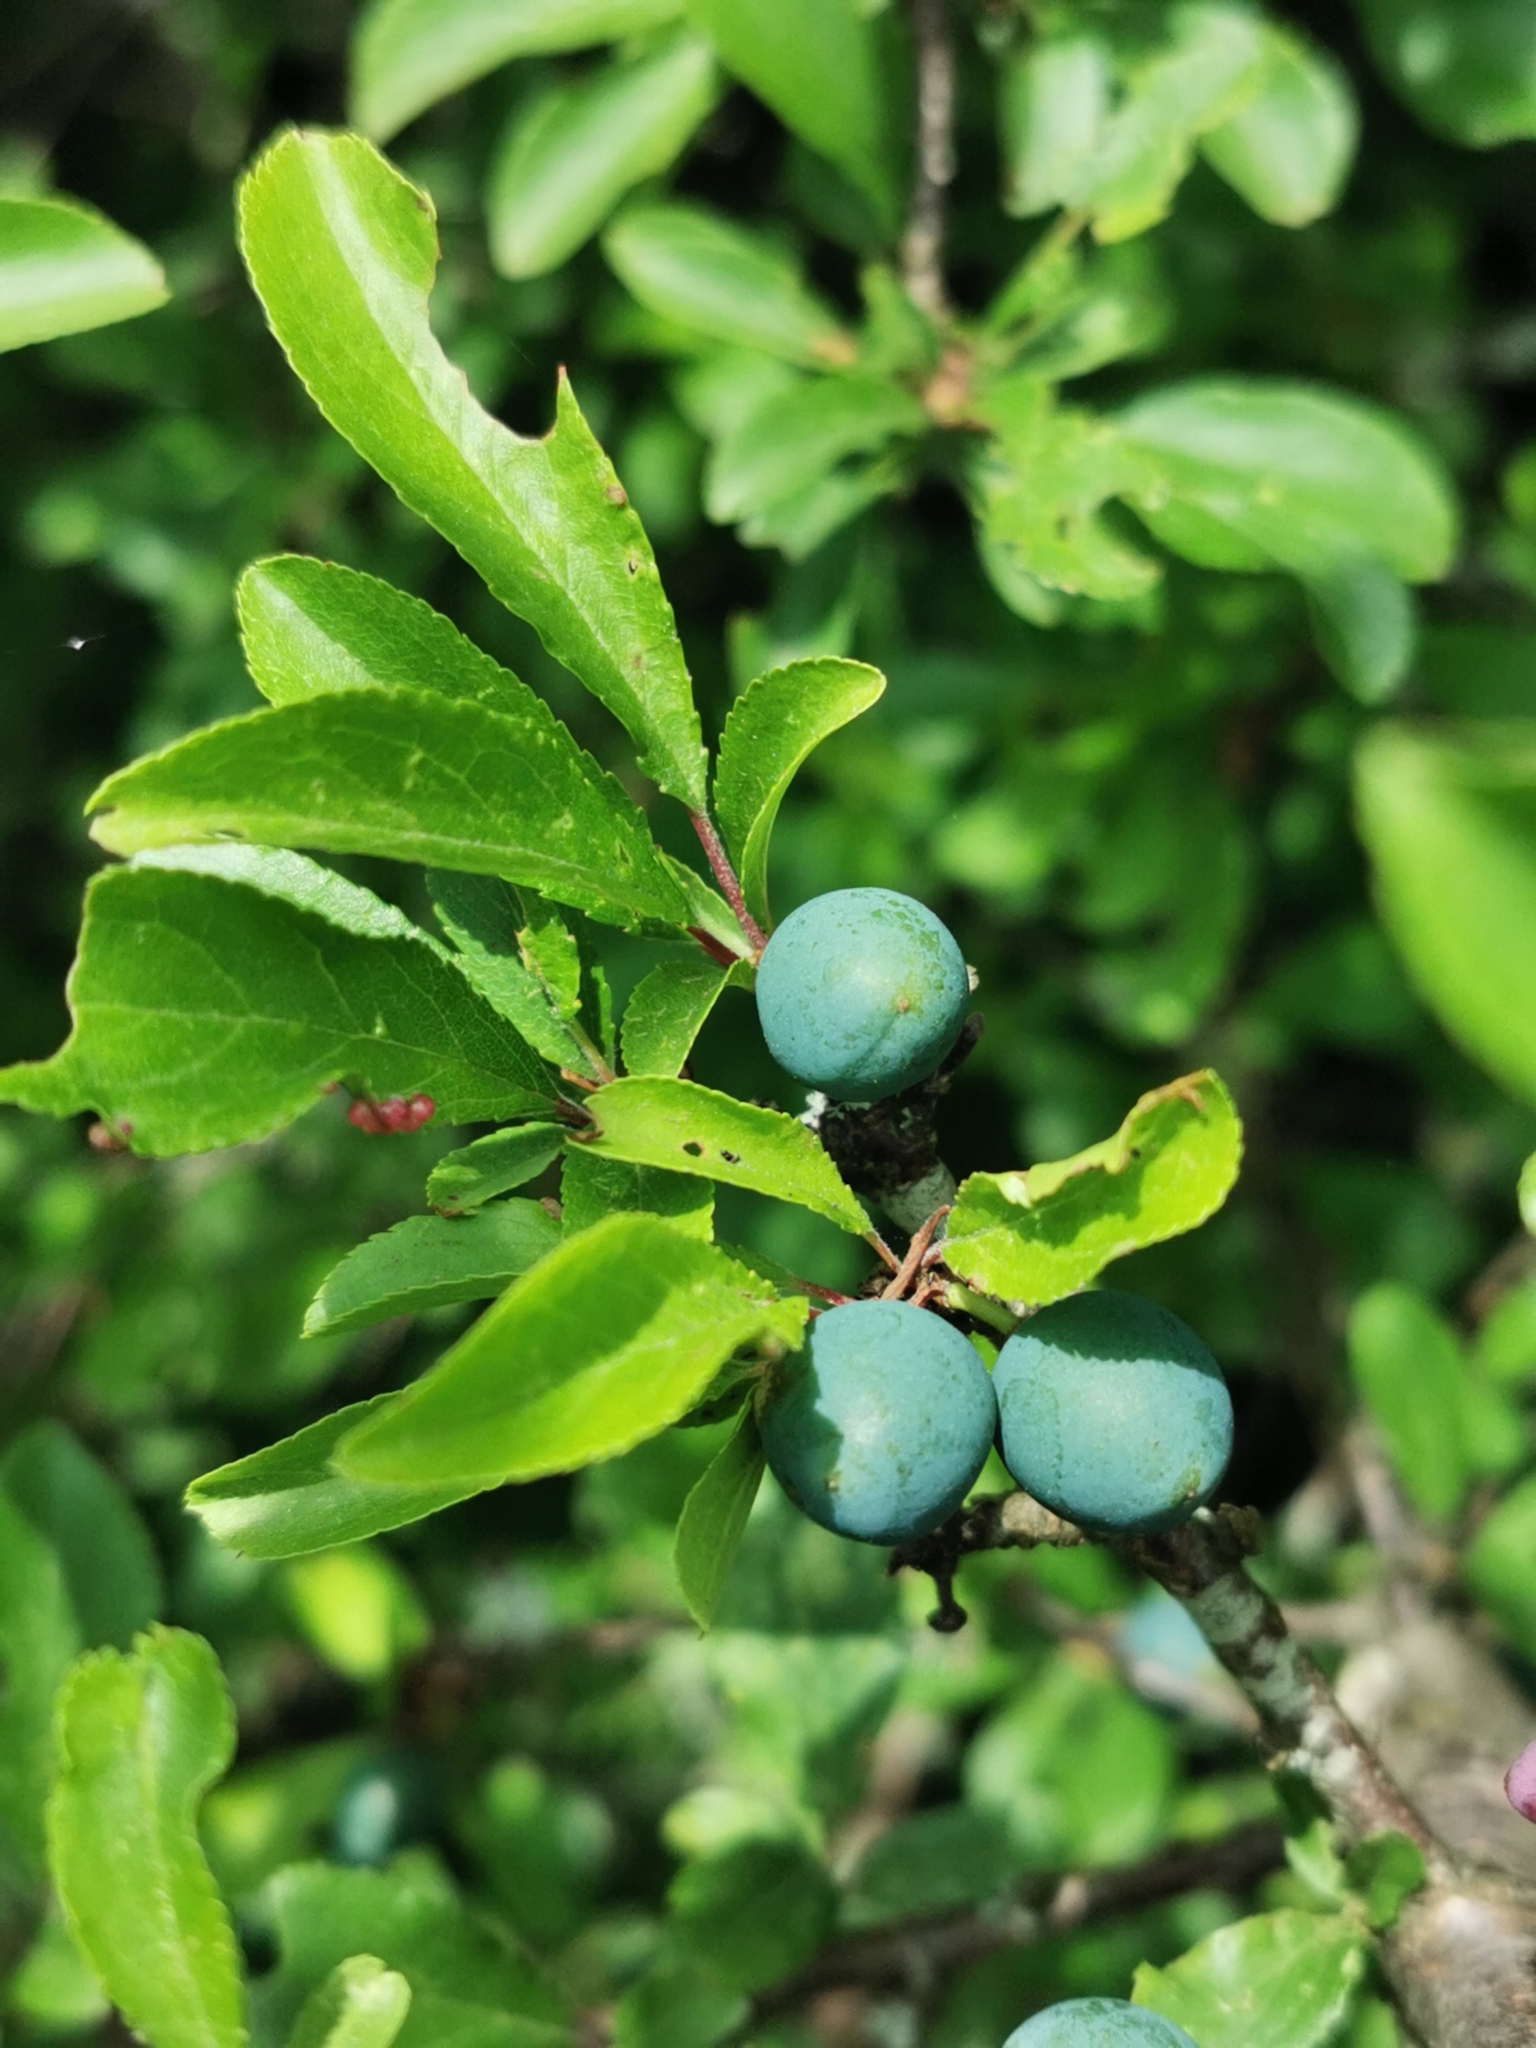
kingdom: Plantae
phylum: Tracheophyta
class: Magnoliopsida
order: Rosales
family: Rosaceae
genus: Prunus
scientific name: Prunus spinosa
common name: Blackthorn
